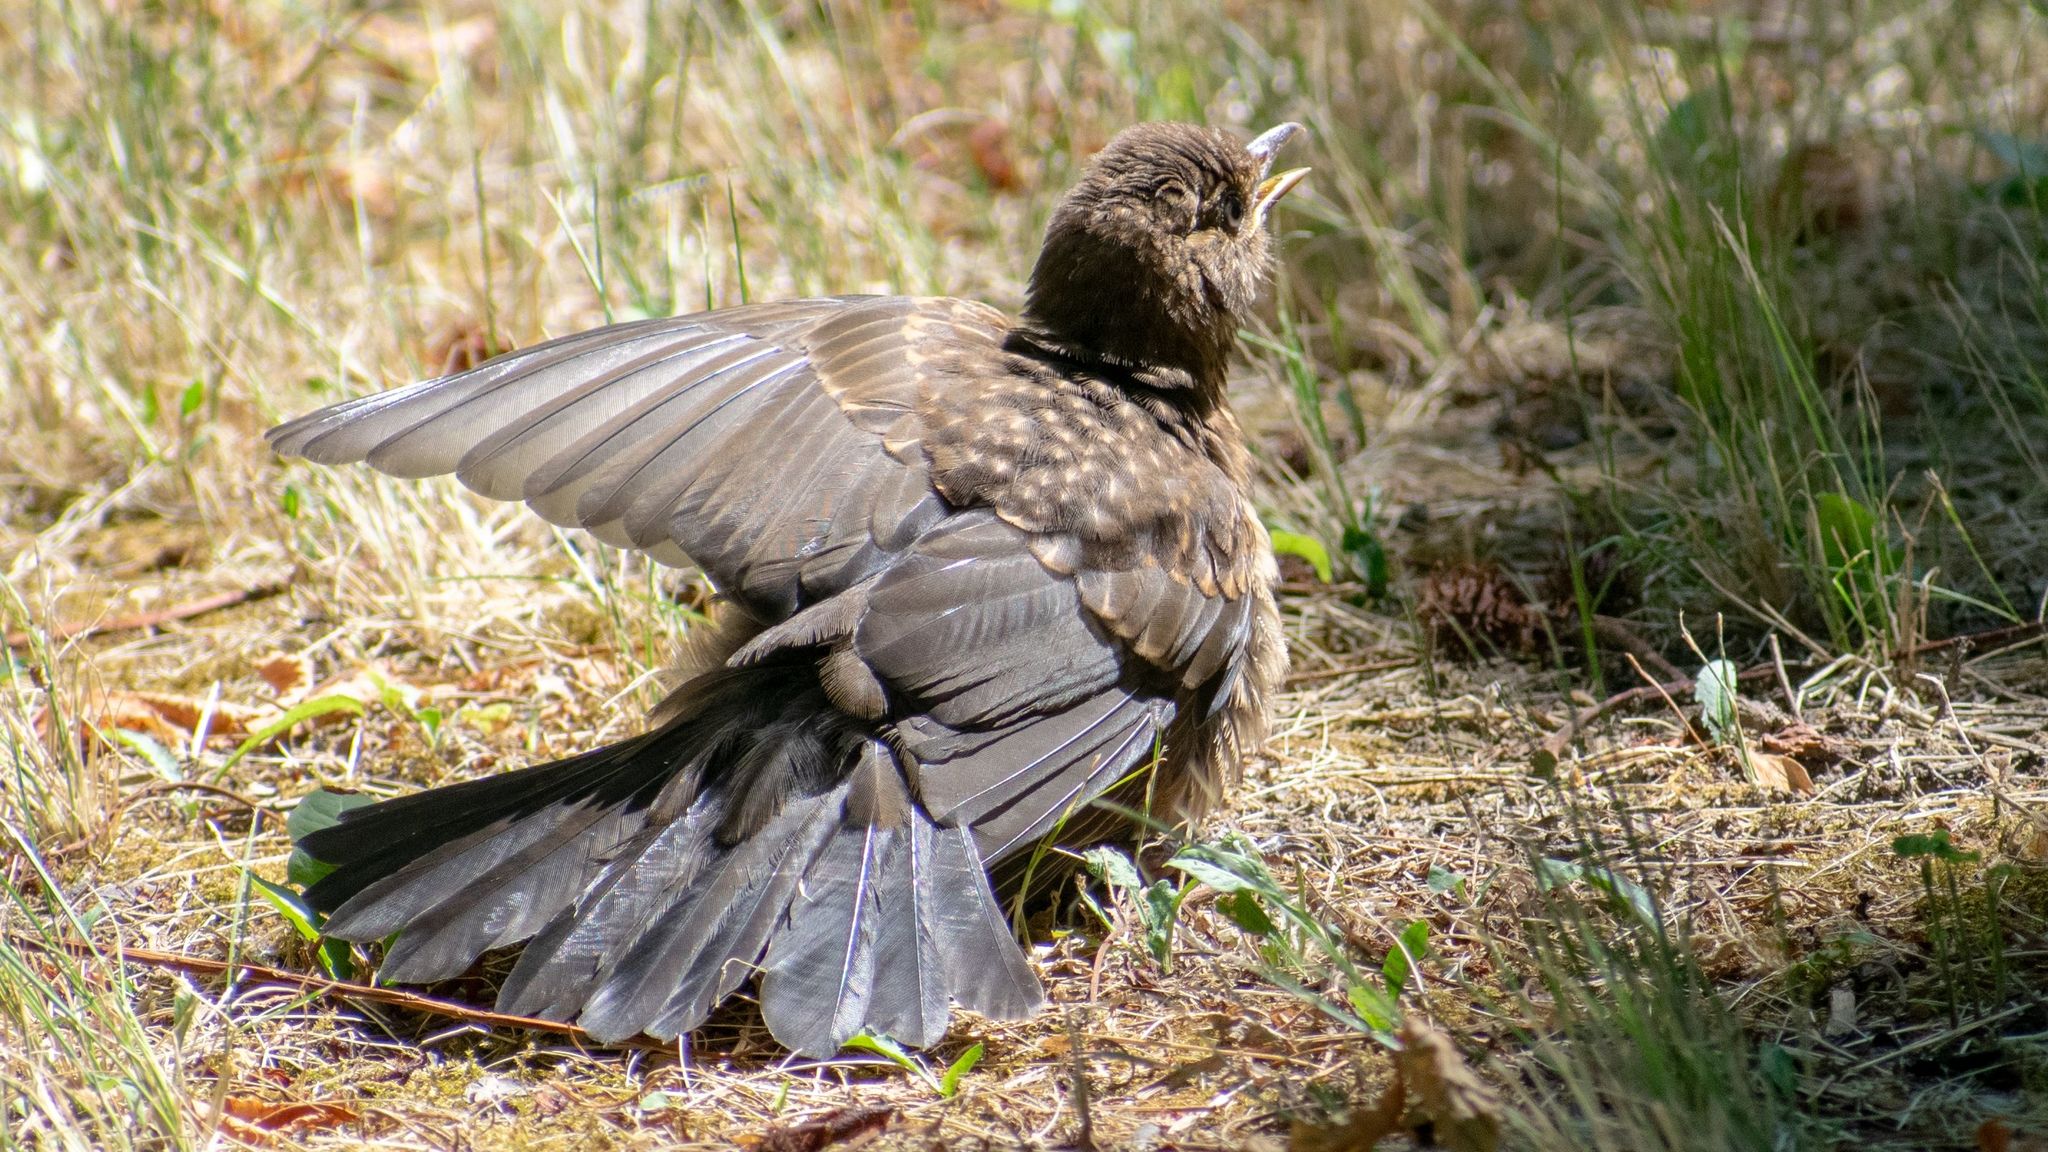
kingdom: Animalia
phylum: Chordata
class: Aves
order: Passeriformes
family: Turdidae
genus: Turdus
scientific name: Turdus merula
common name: Common blackbird
